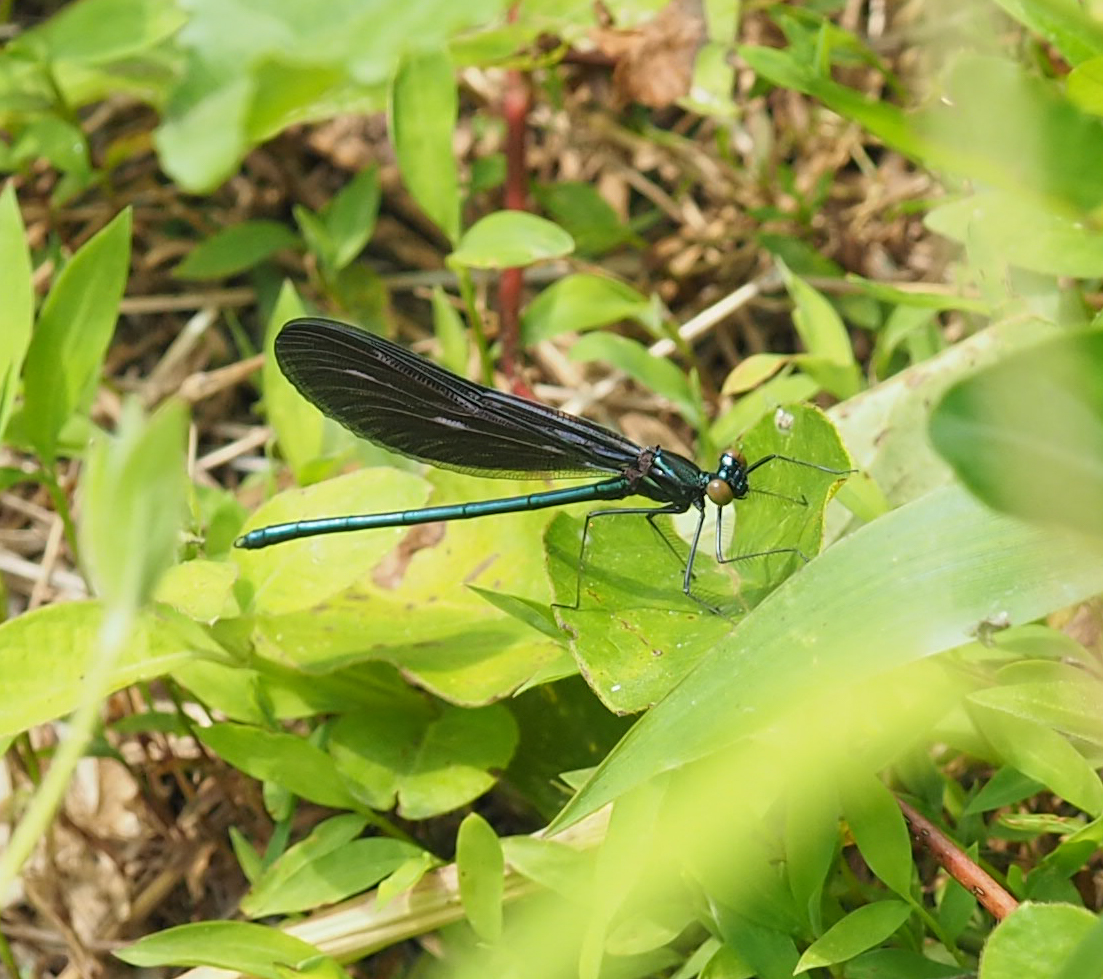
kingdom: Animalia
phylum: Arthropoda
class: Insecta
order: Odonata
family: Calopterygidae
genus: Calopteryx
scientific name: Calopteryx maculata
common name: Ebony jewelwing
